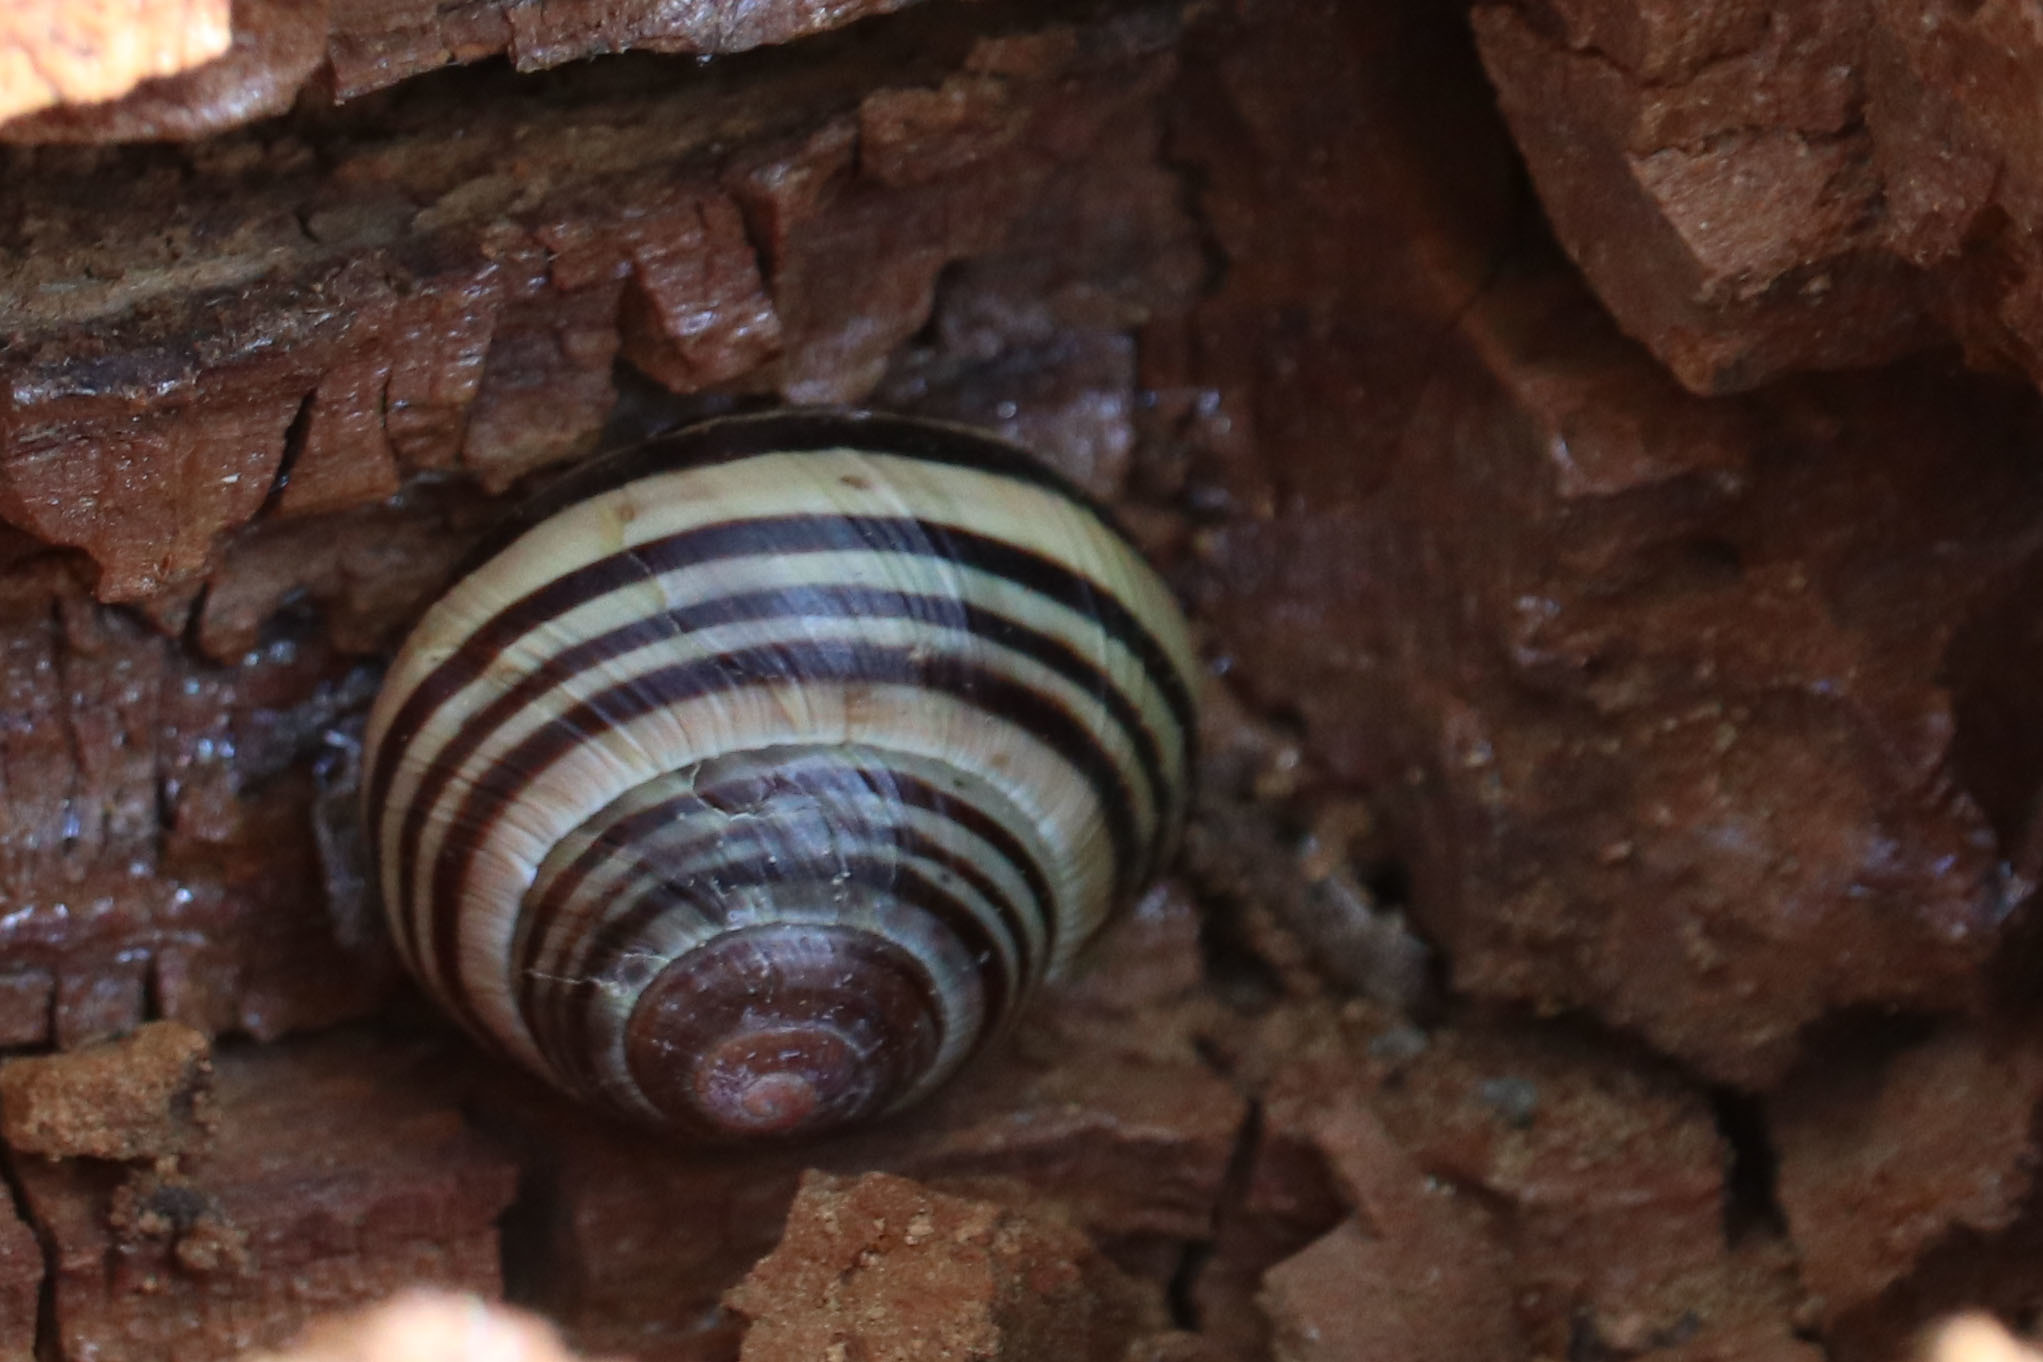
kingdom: Animalia
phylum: Mollusca
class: Gastropoda
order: Stylommatophora
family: Helicidae
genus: Cepaea
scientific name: Cepaea nemoralis
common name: Grovesnail
